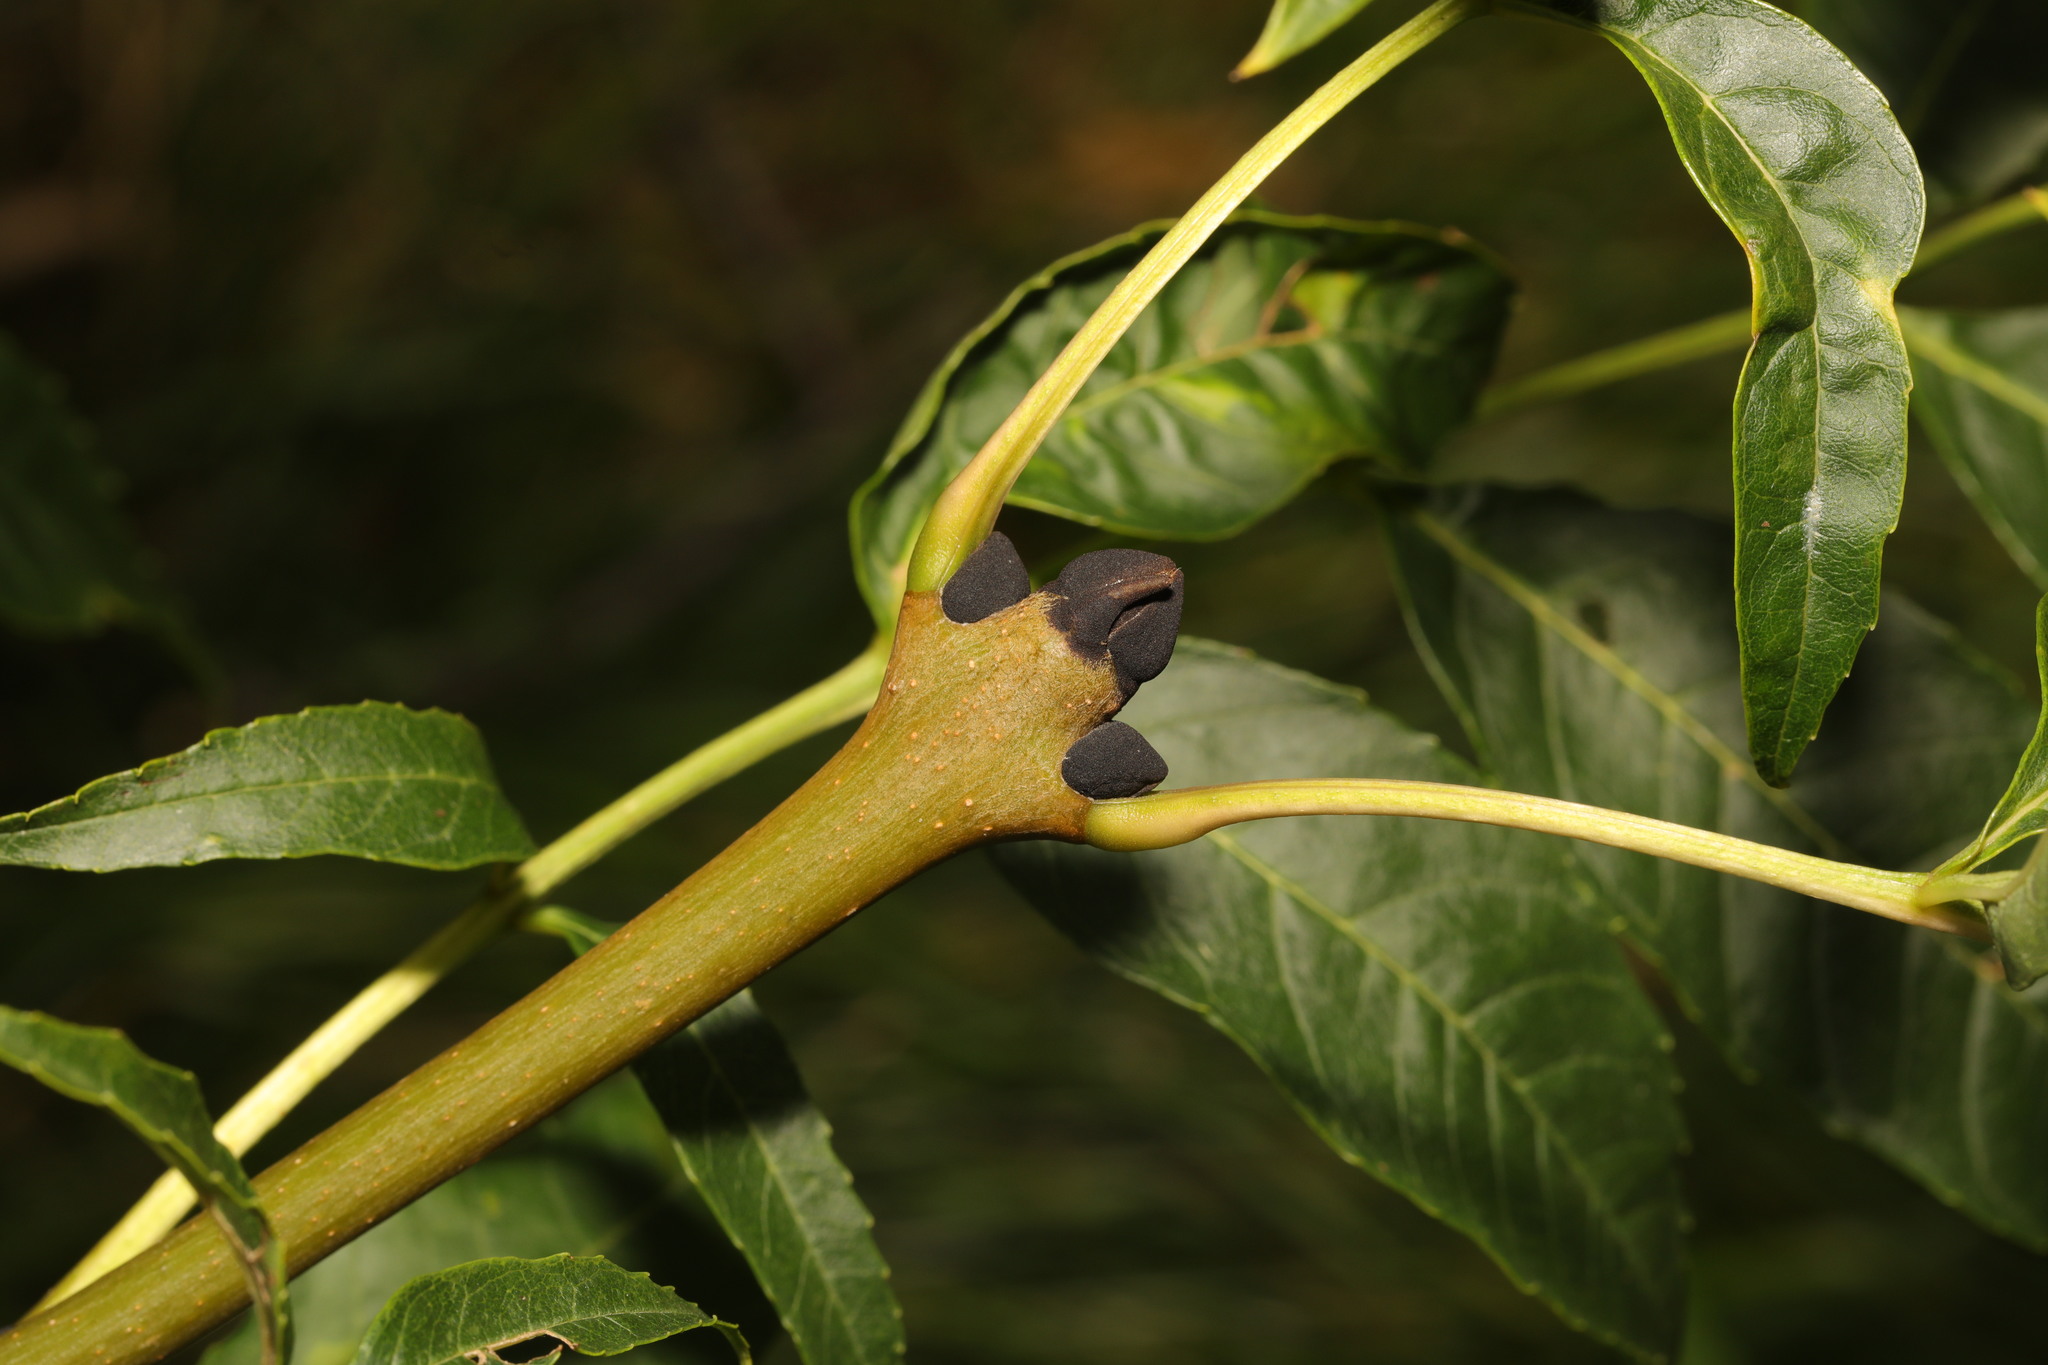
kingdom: Plantae
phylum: Tracheophyta
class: Magnoliopsida
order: Lamiales
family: Oleaceae
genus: Fraxinus
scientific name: Fraxinus excelsior
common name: European ash
